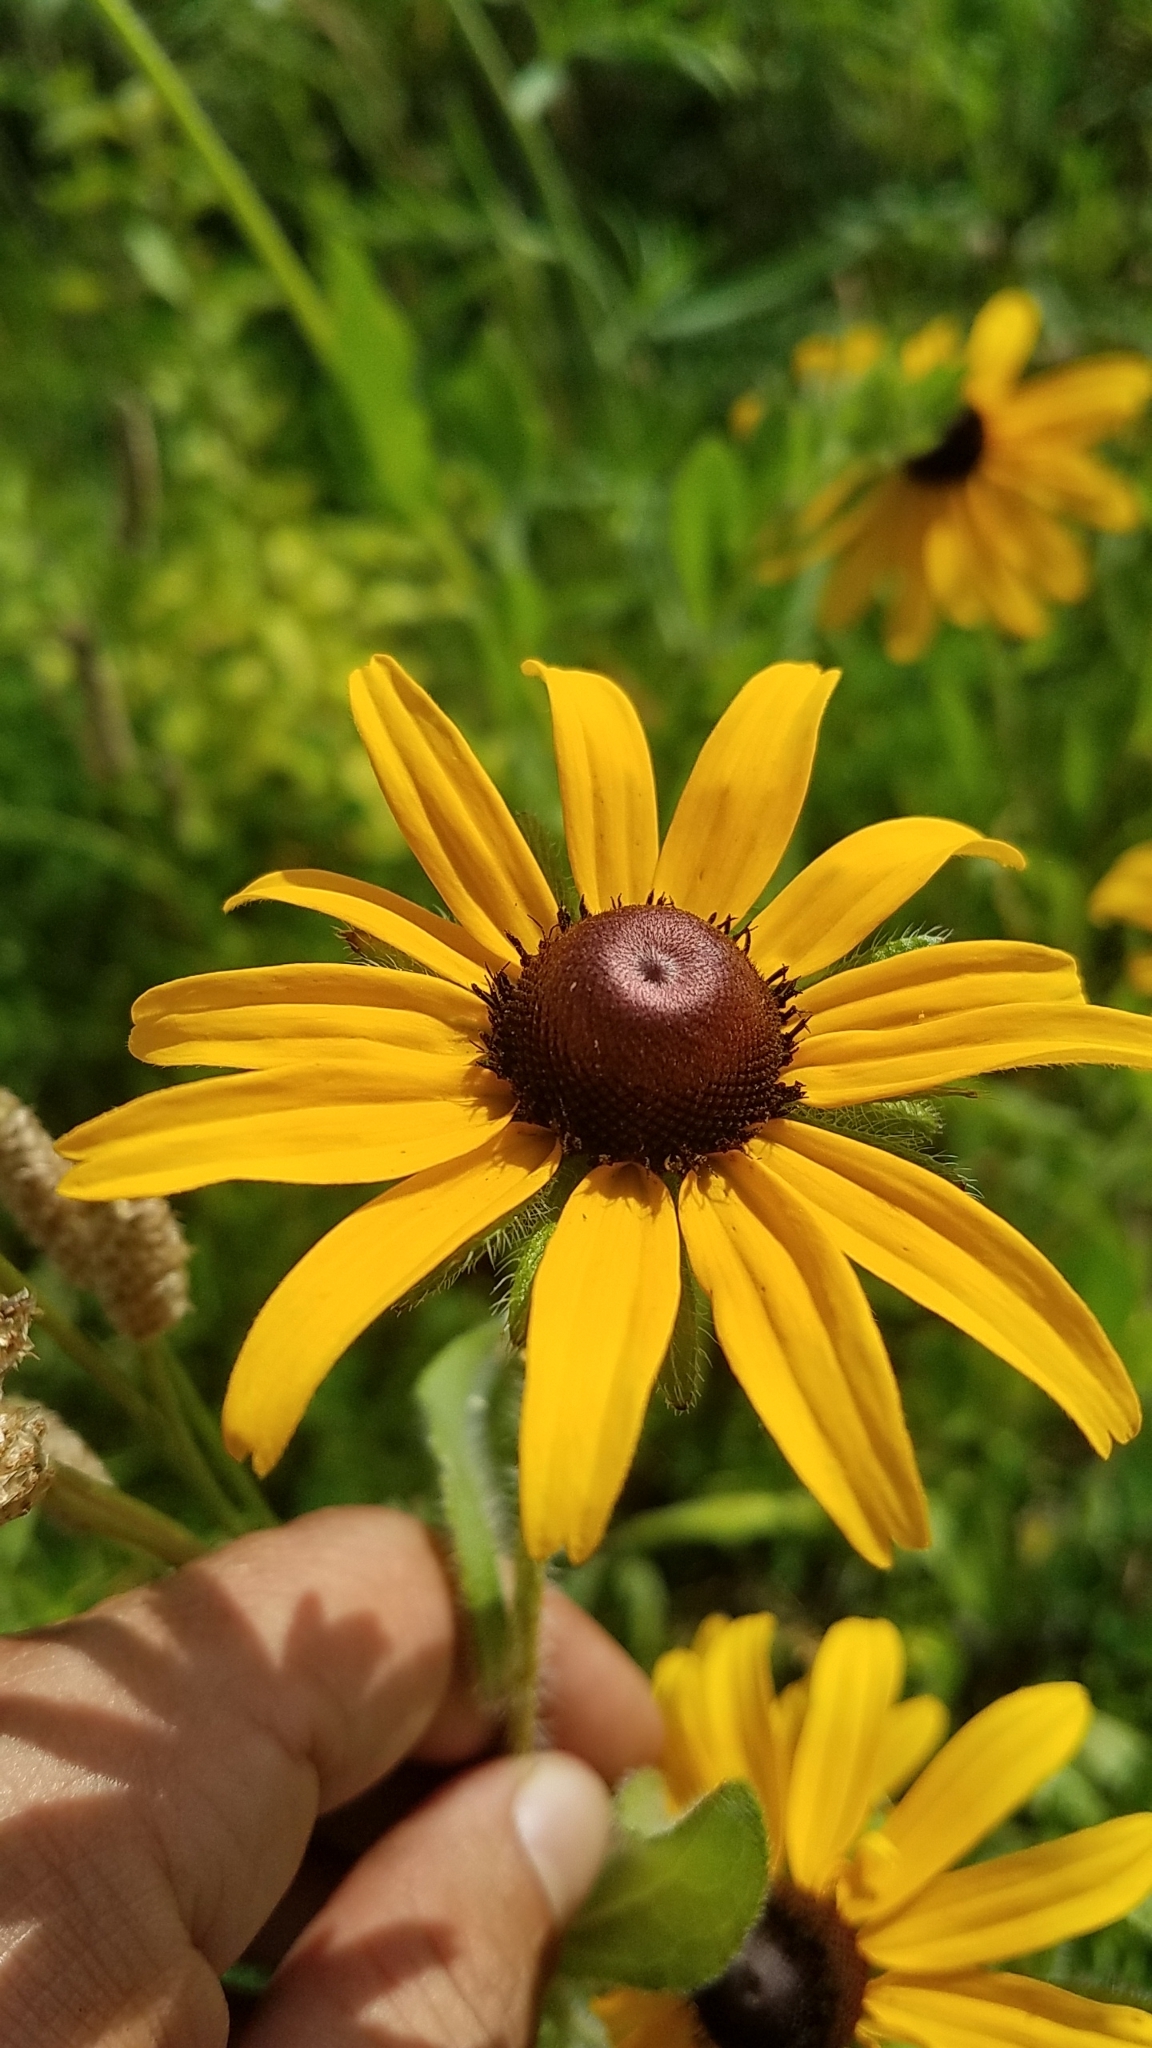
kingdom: Plantae
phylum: Tracheophyta
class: Magnoliopsida
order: Asterales
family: Asteraceae
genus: Rudbeckia
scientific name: Rudbeckia hirta
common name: Black-eyed-susan
